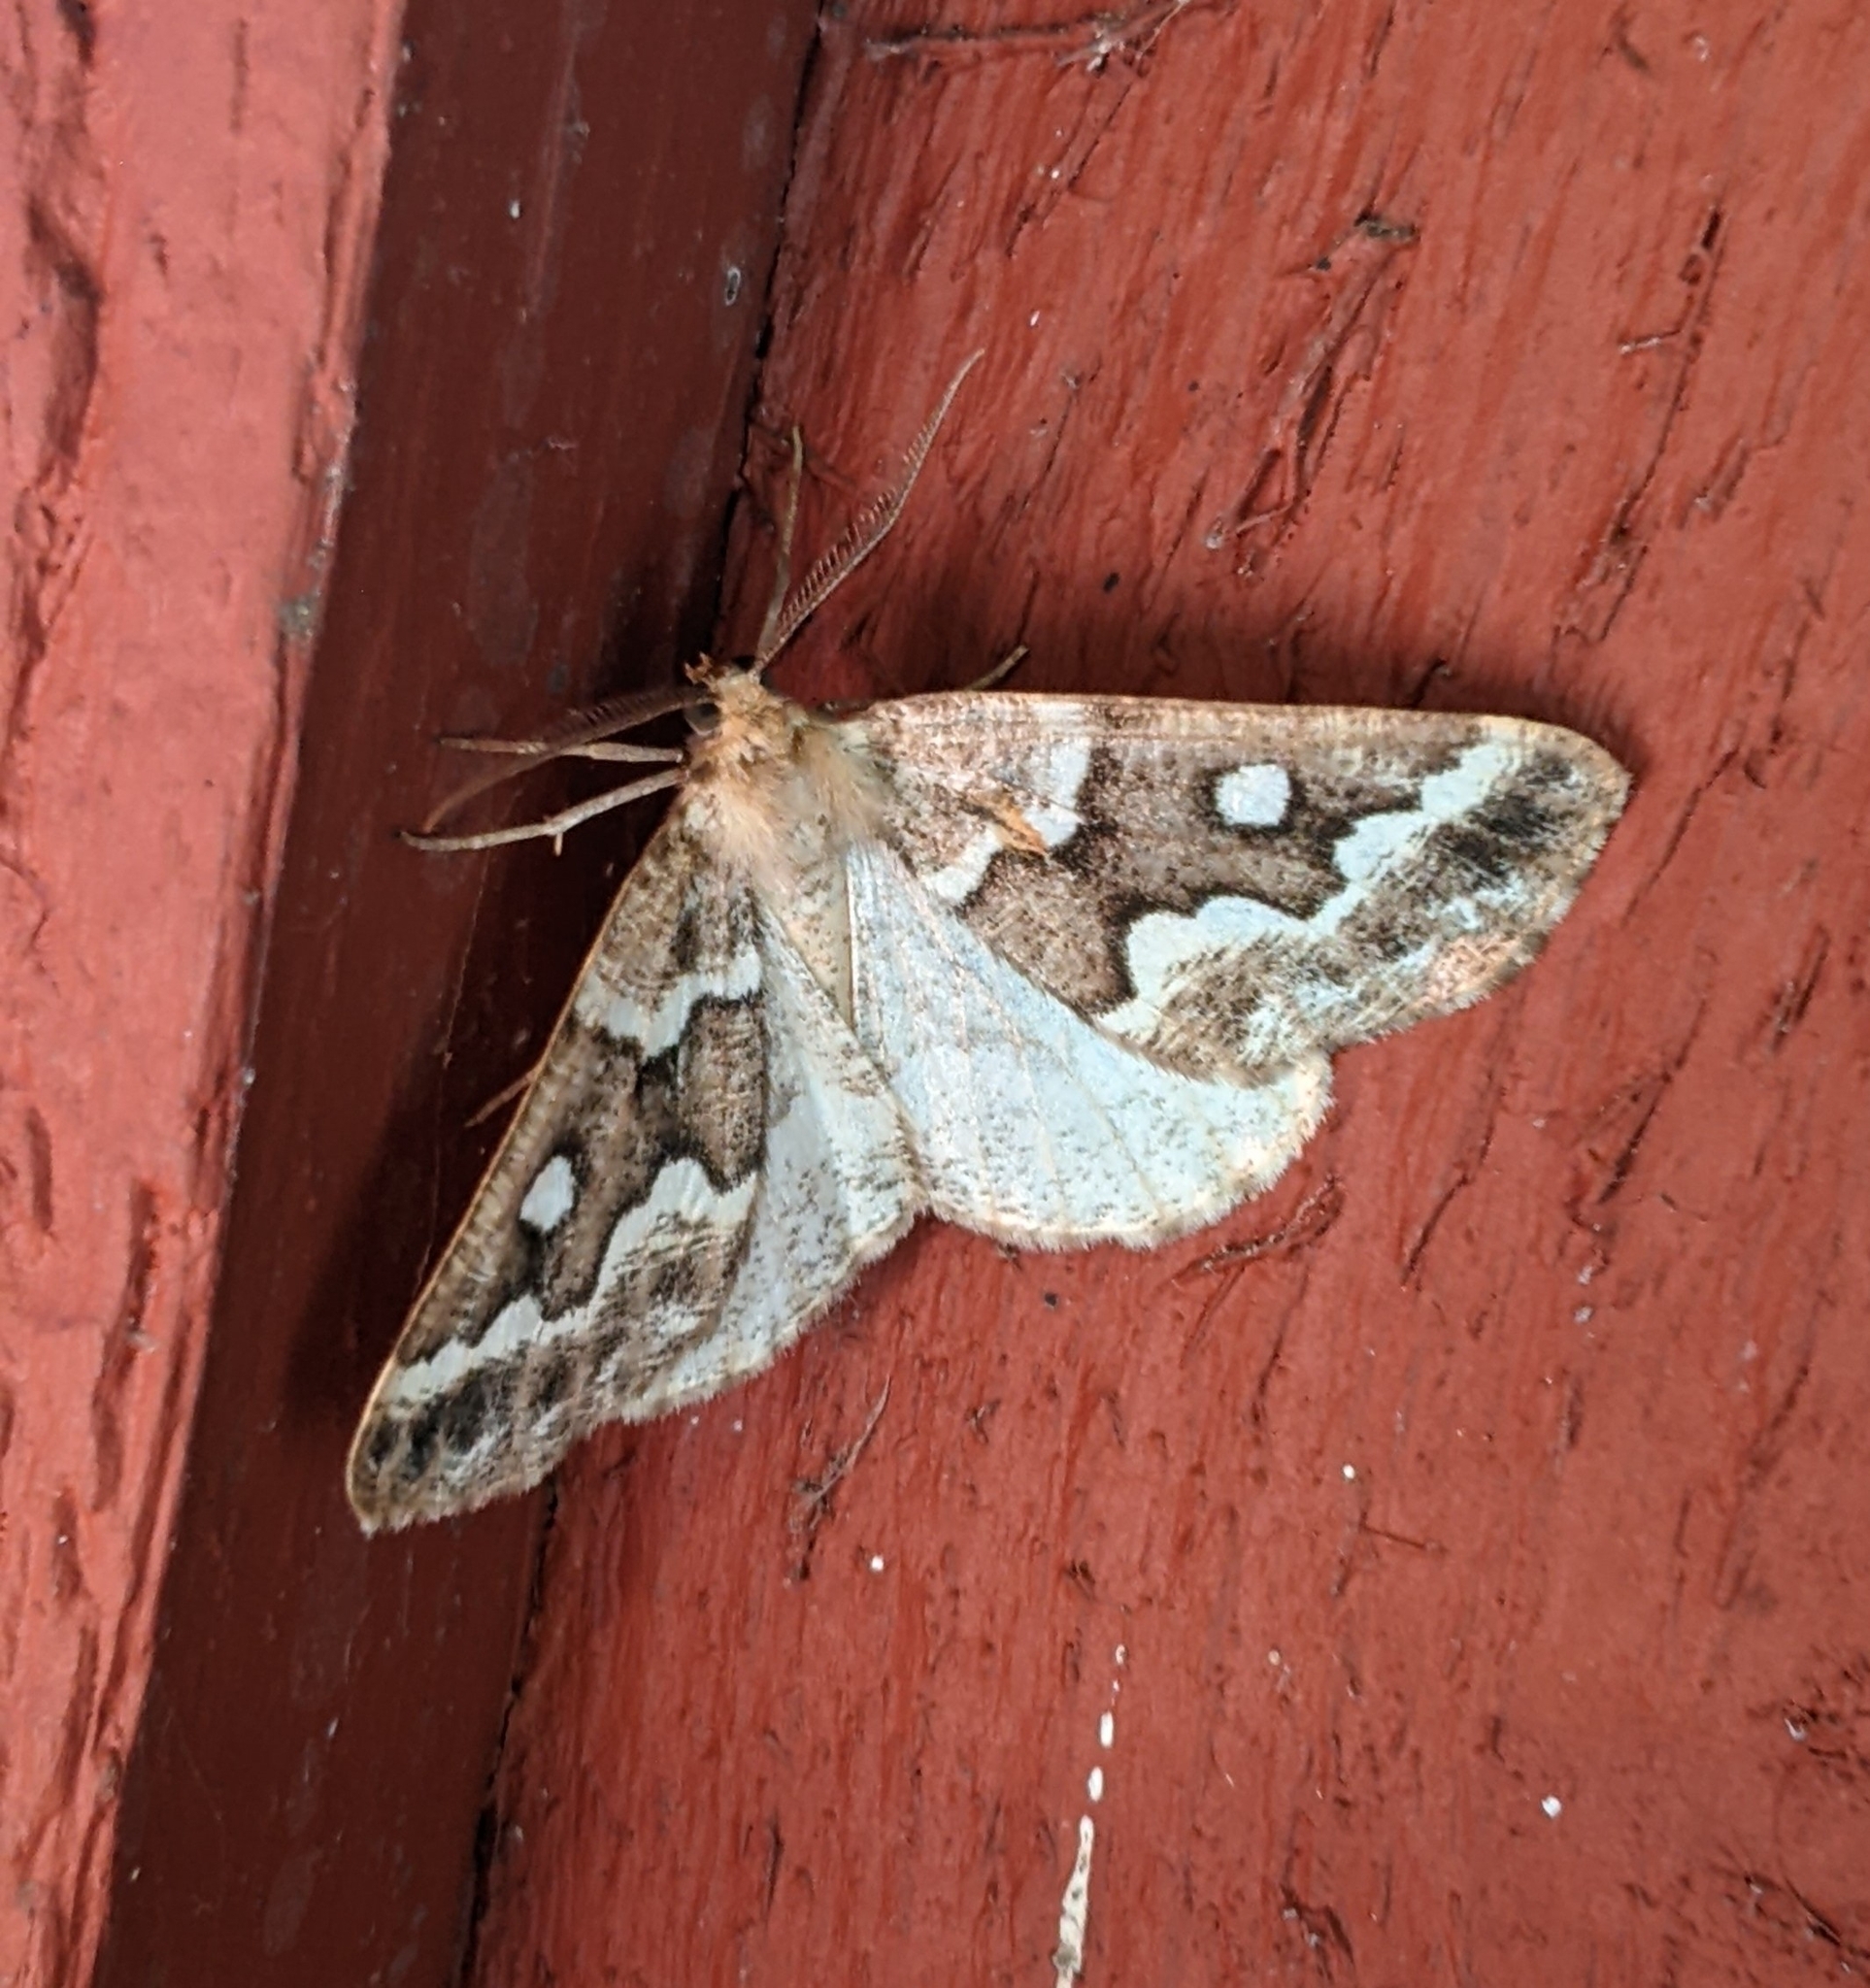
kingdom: Animalia
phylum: Arthropoda
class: Insecta
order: Lepidoptera
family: Geometridae
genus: Caripeta
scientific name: Caripeta divisata
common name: Gray spruce looper
